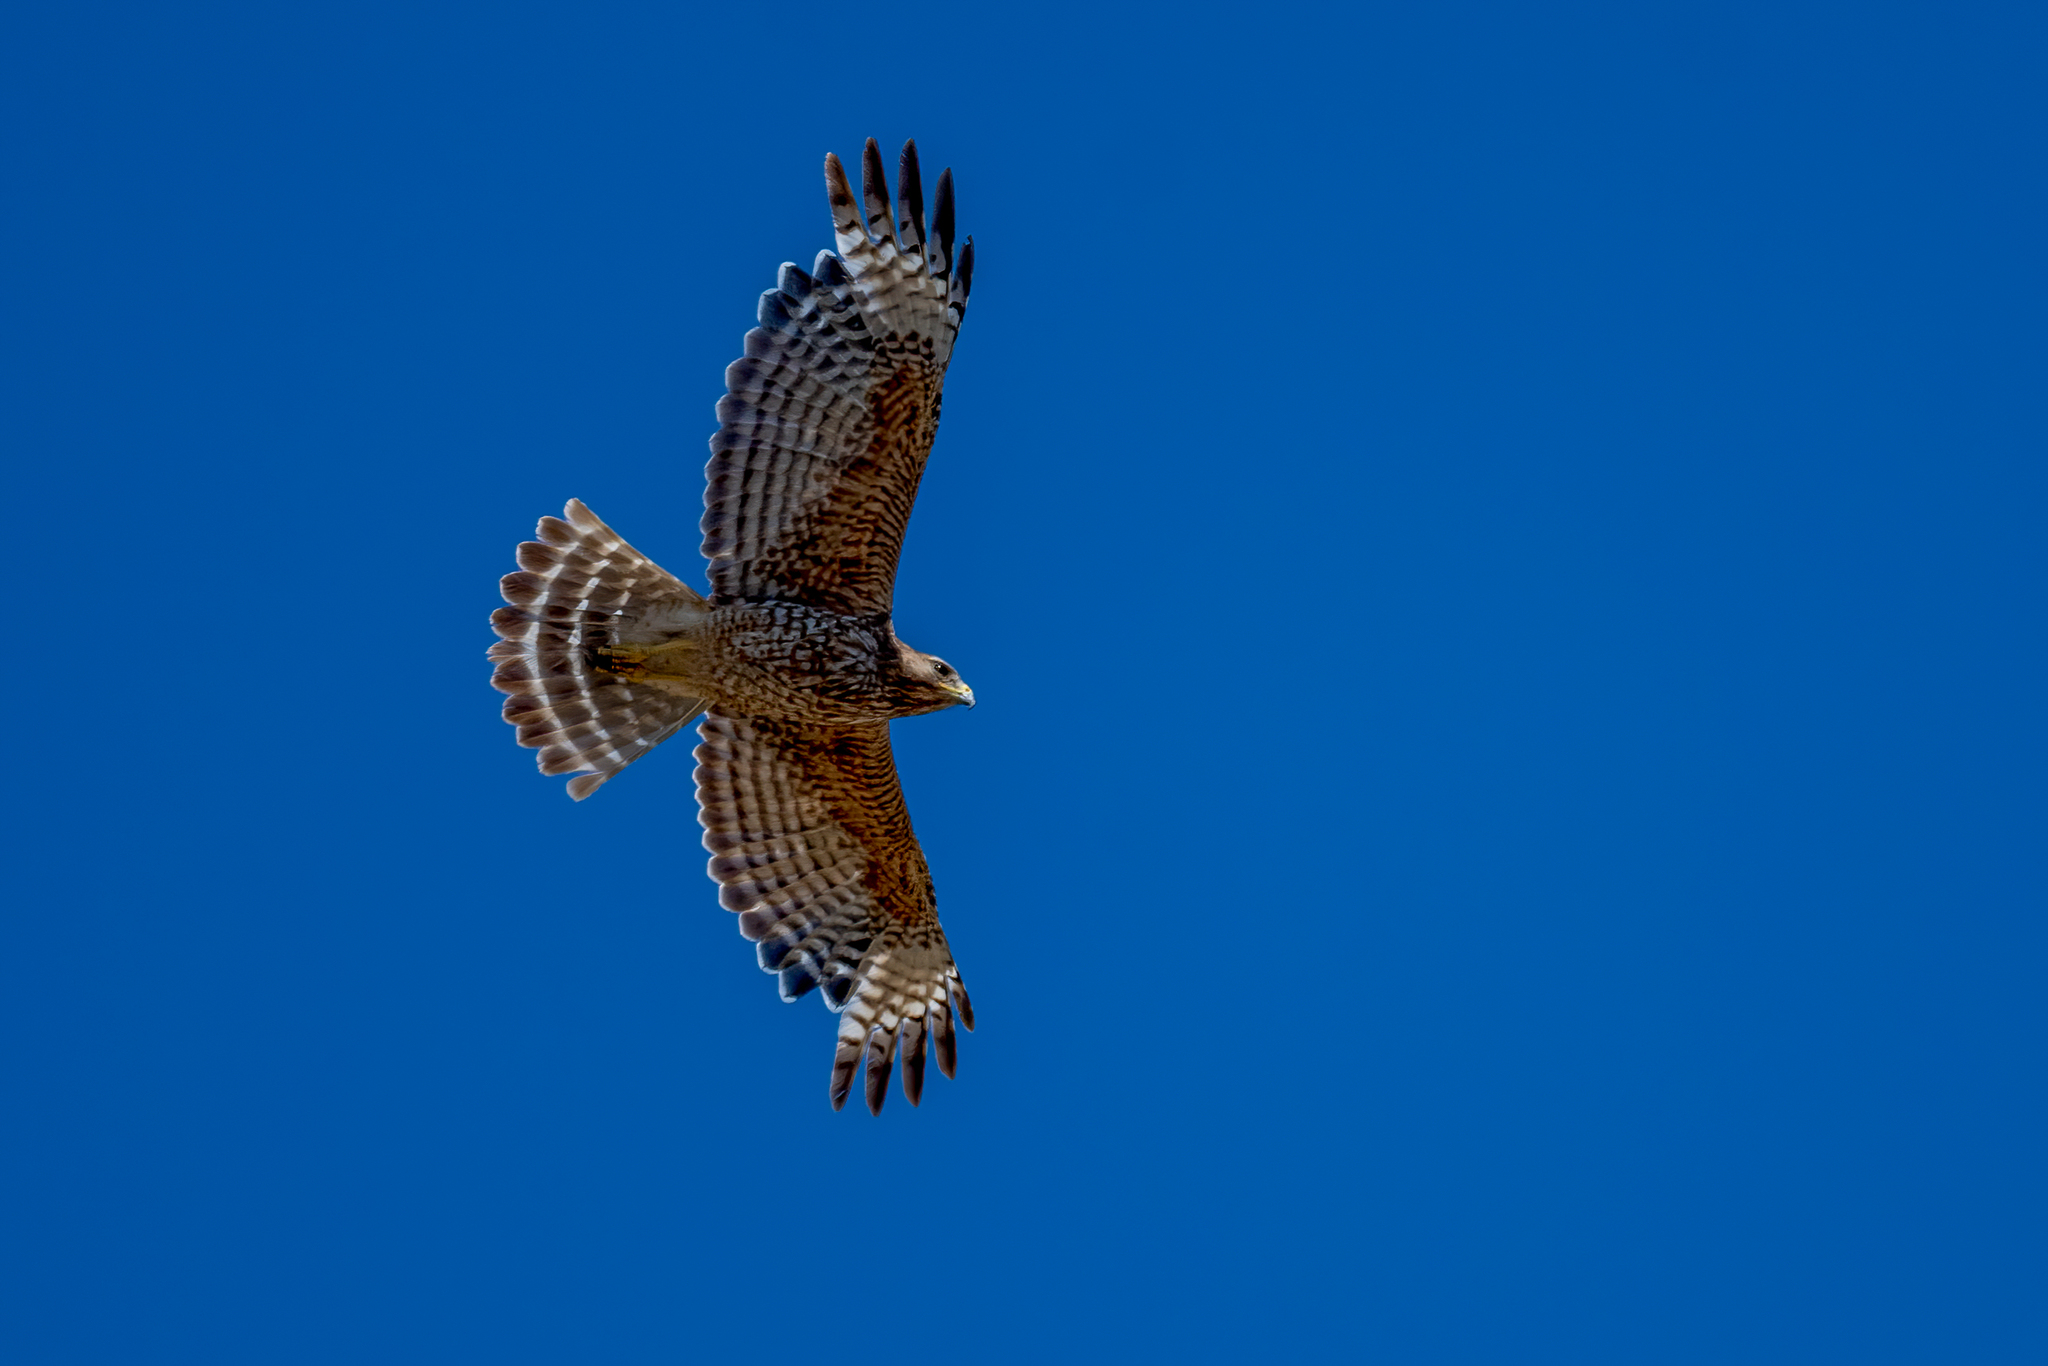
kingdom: Animalia
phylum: Chordata
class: Aves
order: Accipitriformes
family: Accipitridae
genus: Buteo
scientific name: Buteo lineatus
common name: Red-shouldered hawk
